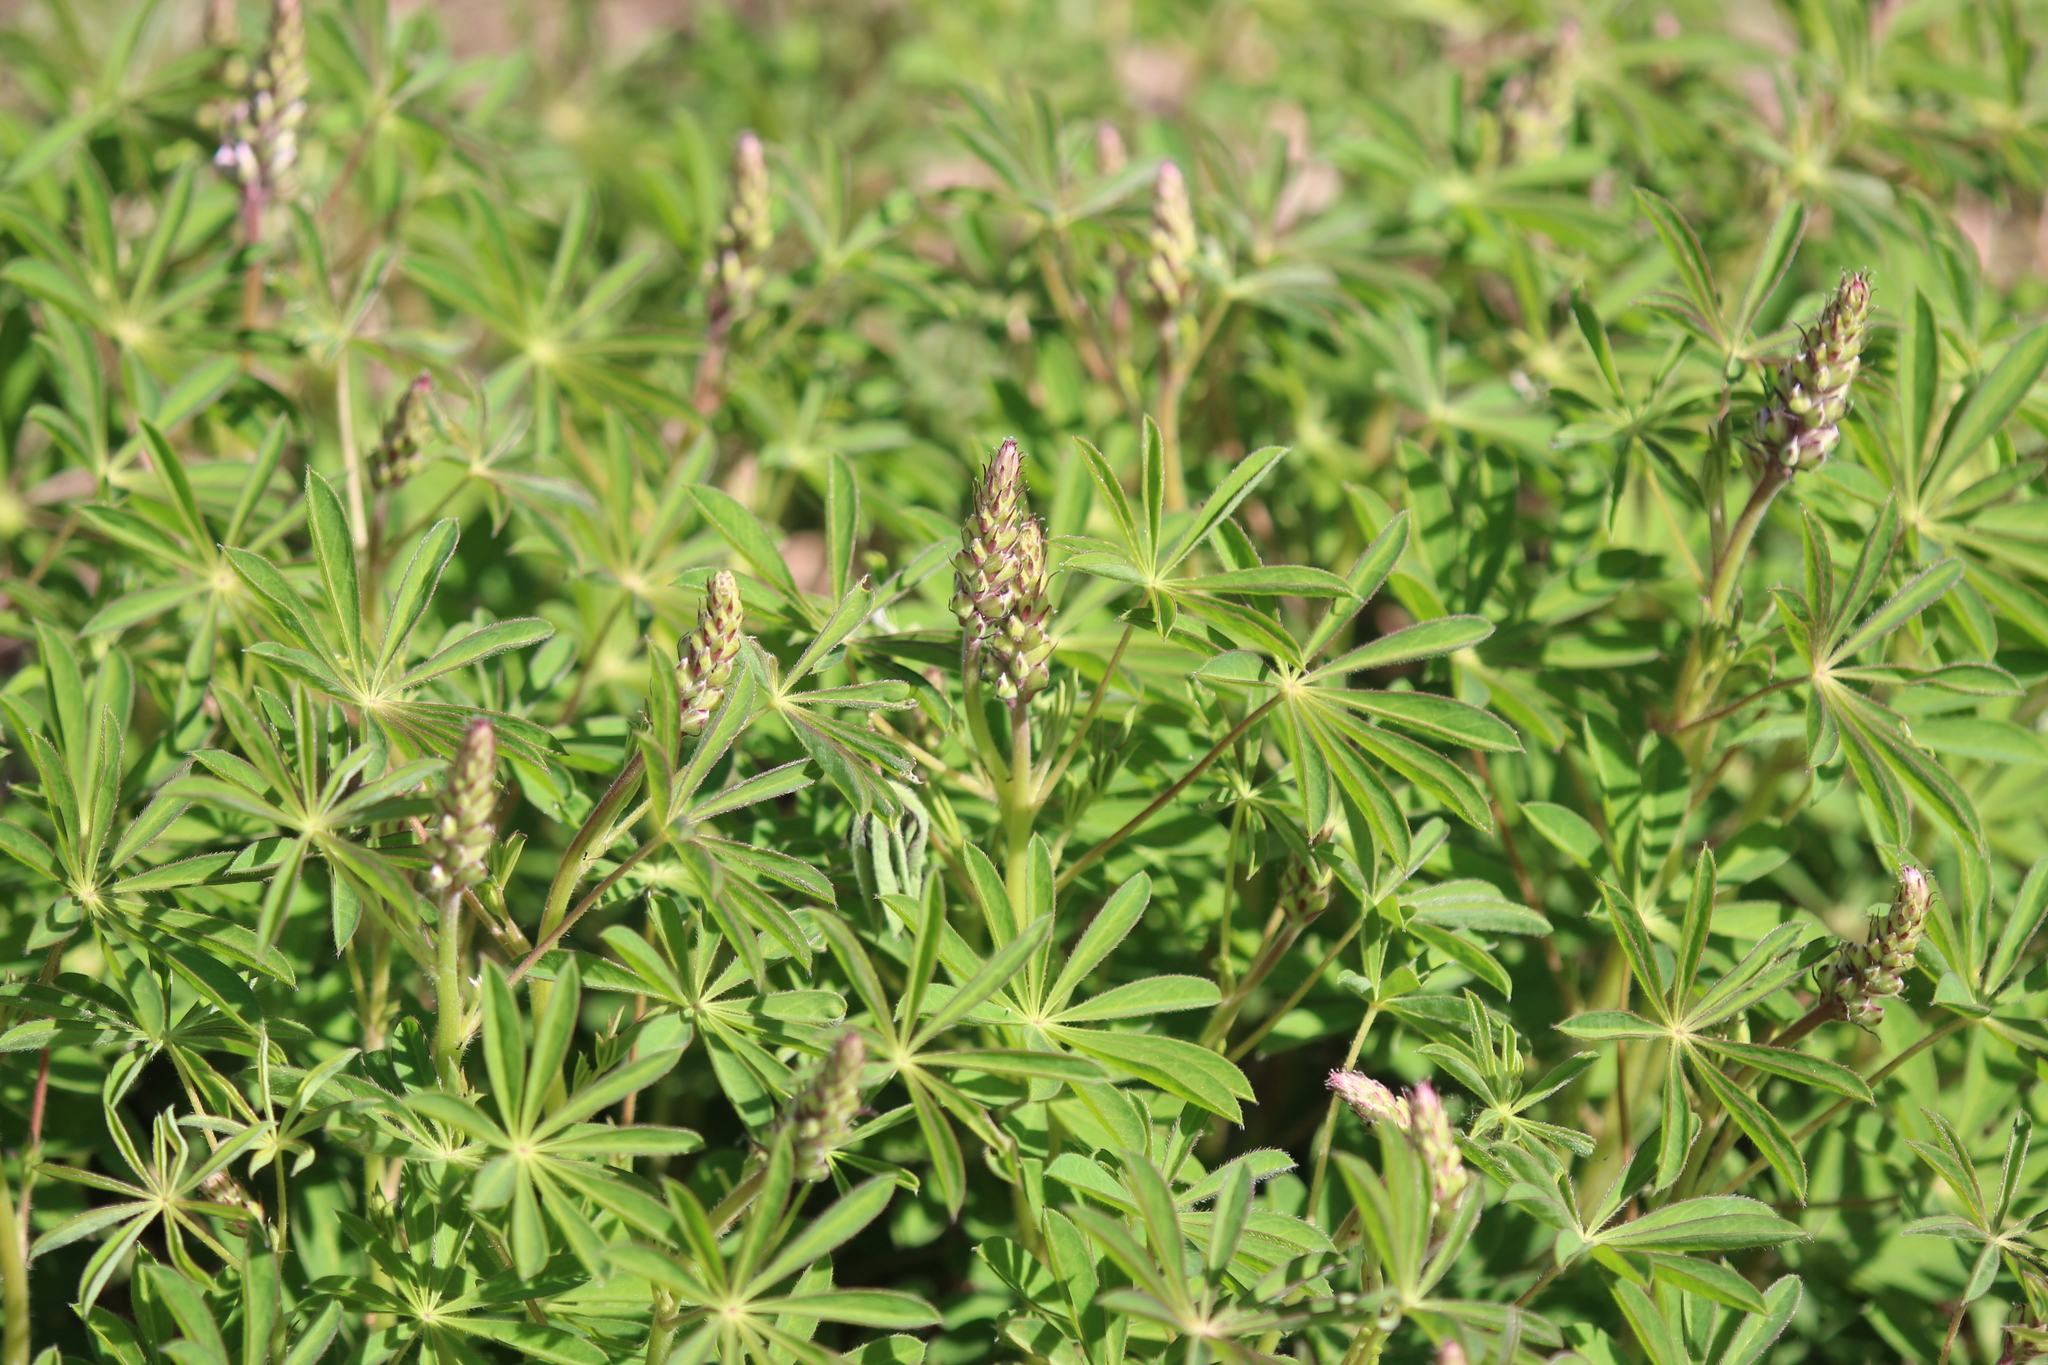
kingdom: Plantae
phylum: Tracheophyta
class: Magnoliopsida
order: Fabales
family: Fabaceae
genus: Lupinus
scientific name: Lupinus perennis
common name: Sundial lupine
